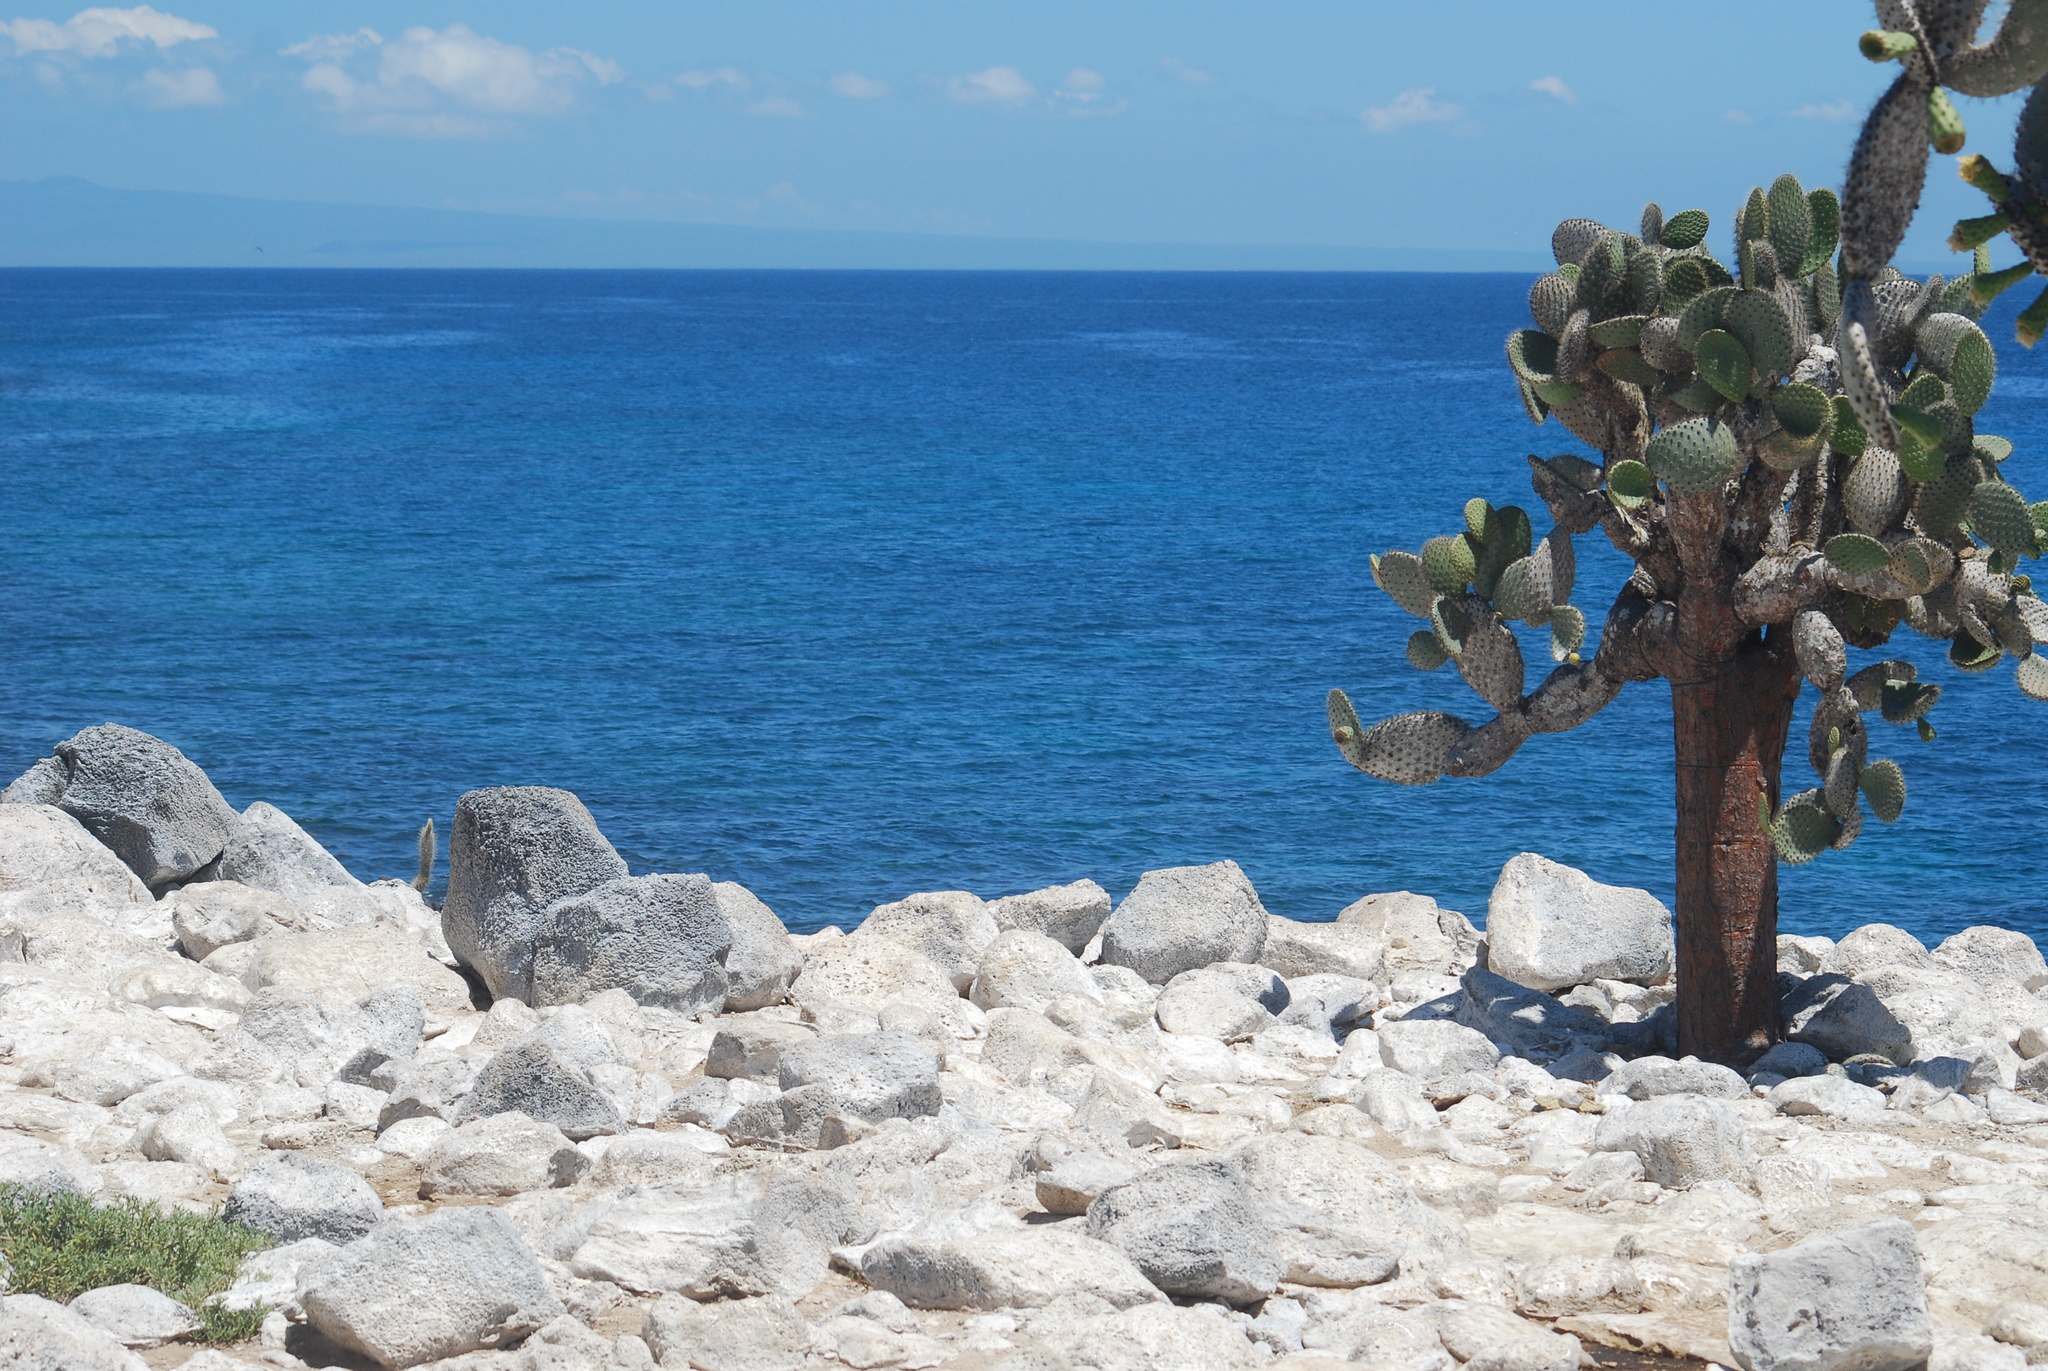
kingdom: Plantae
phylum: Tracheophyta
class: Magnoliopsida
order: Caryophyllales
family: Cactaceae
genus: Opuntia
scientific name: Opuntia galapageia
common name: Galápagos prickly pear
